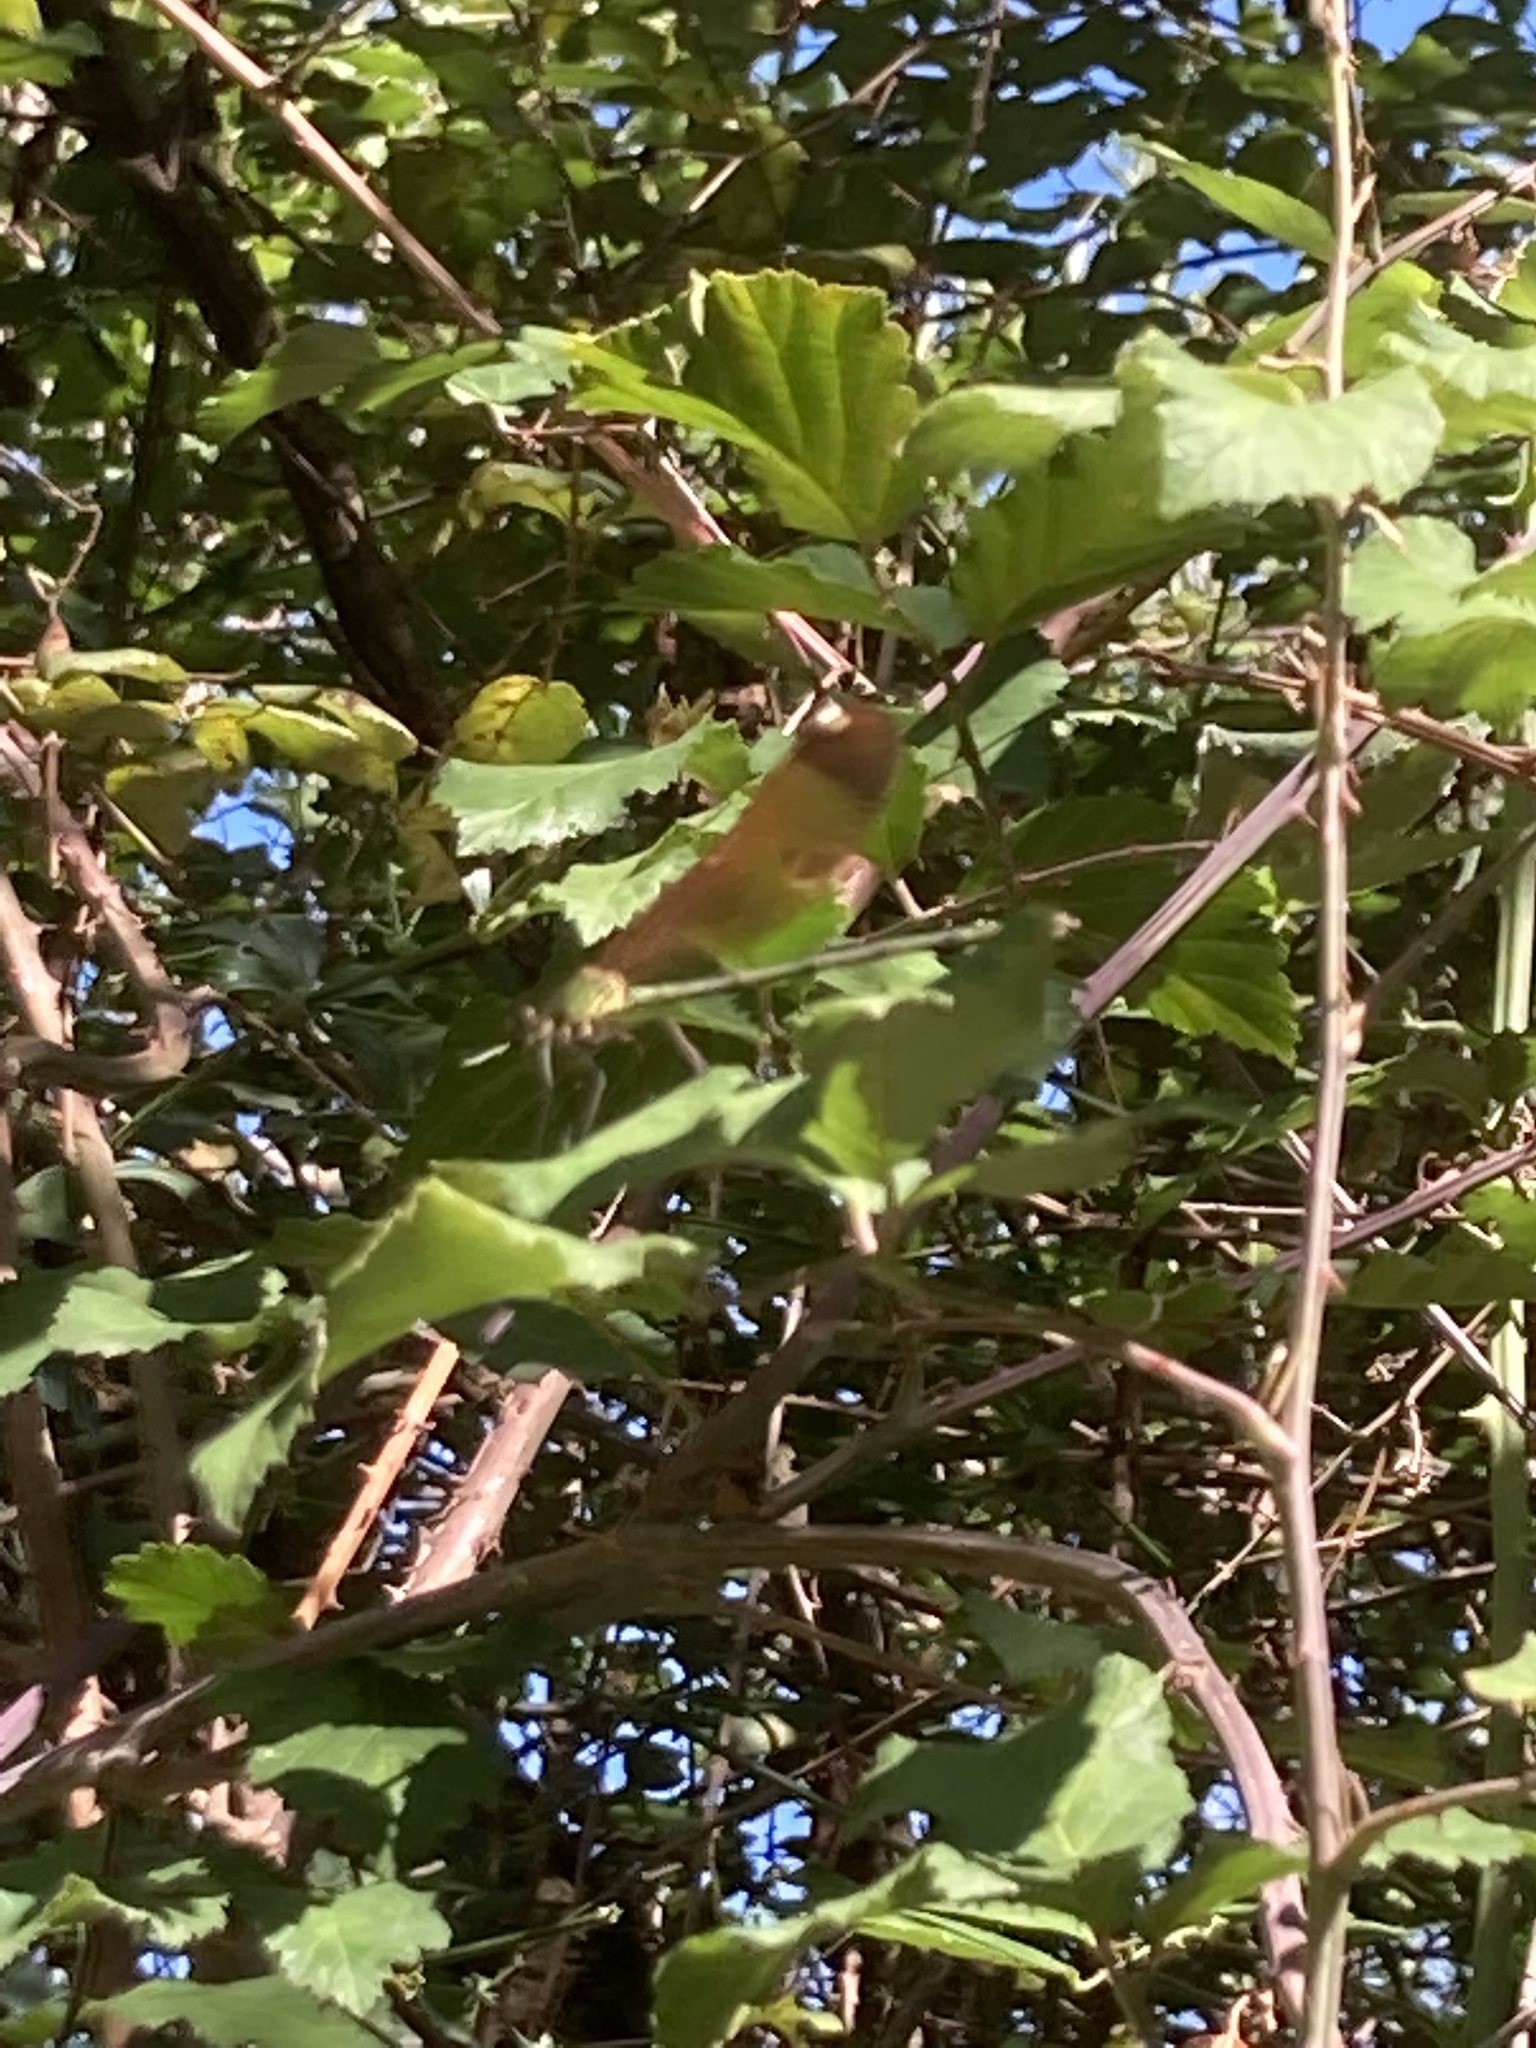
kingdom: Animalia
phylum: Arthropoda
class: Insecta
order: Odonata
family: Calopterygidae
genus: Calopteryx
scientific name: Calopteryx haemorrhoidalis
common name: Copper demoiselle
